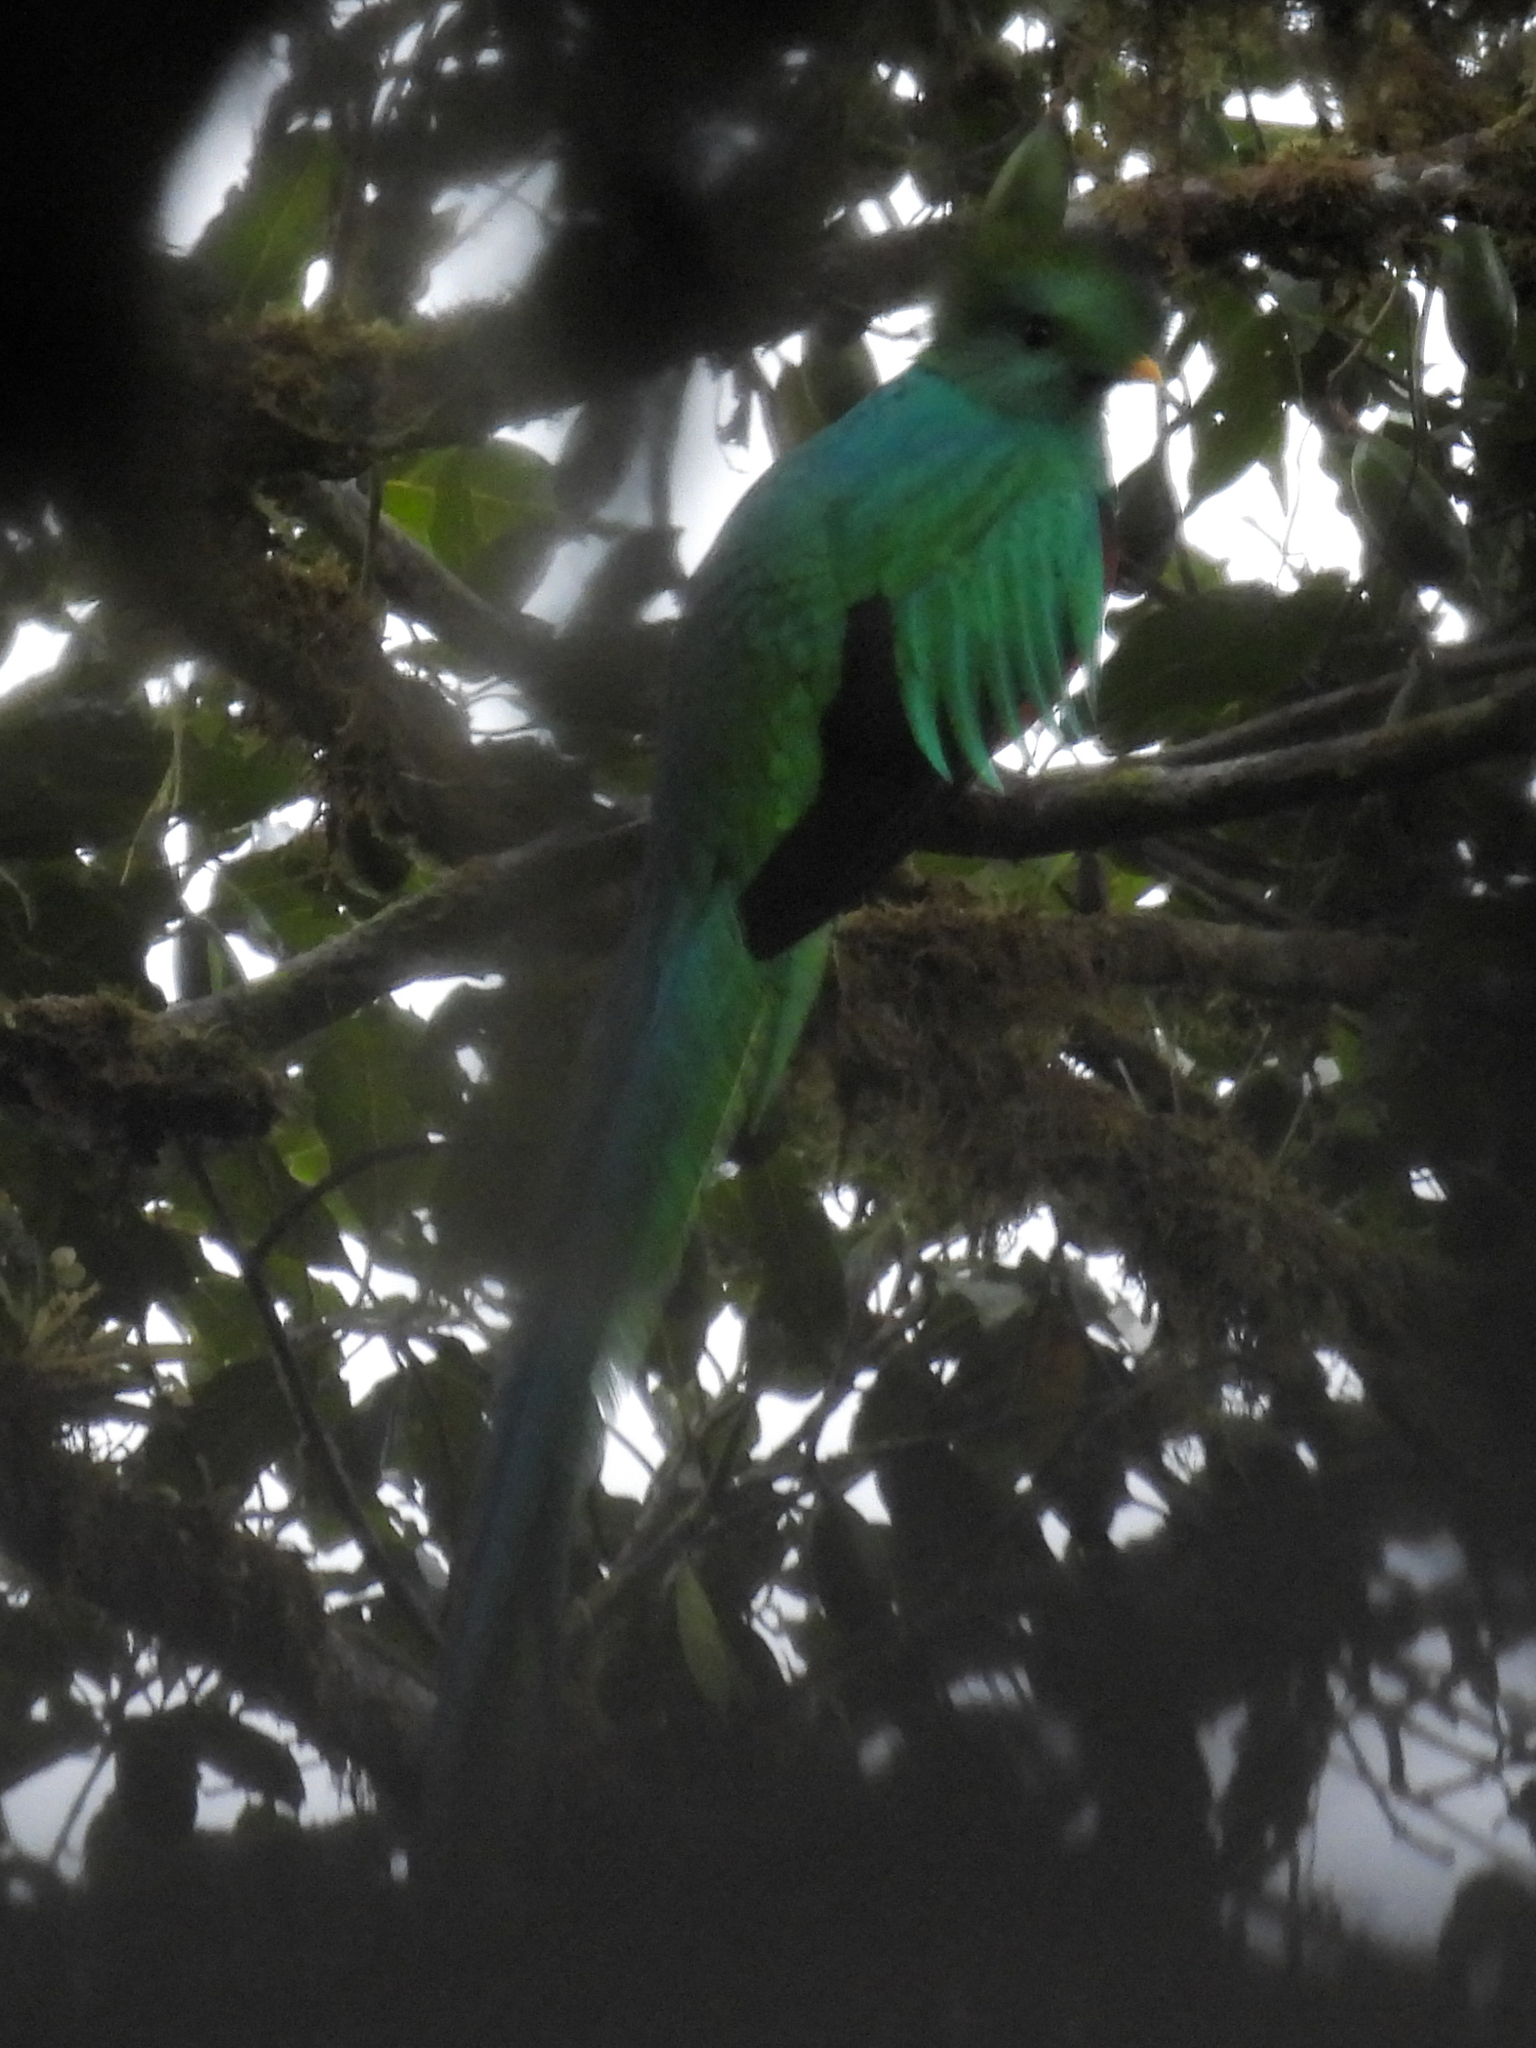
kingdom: Animalia
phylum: Chordata
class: Aves
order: Trogoniformes
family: Trogonidae
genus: Pharomachrus
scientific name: Pharomachrus mocinno
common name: Resplendent quetzal
